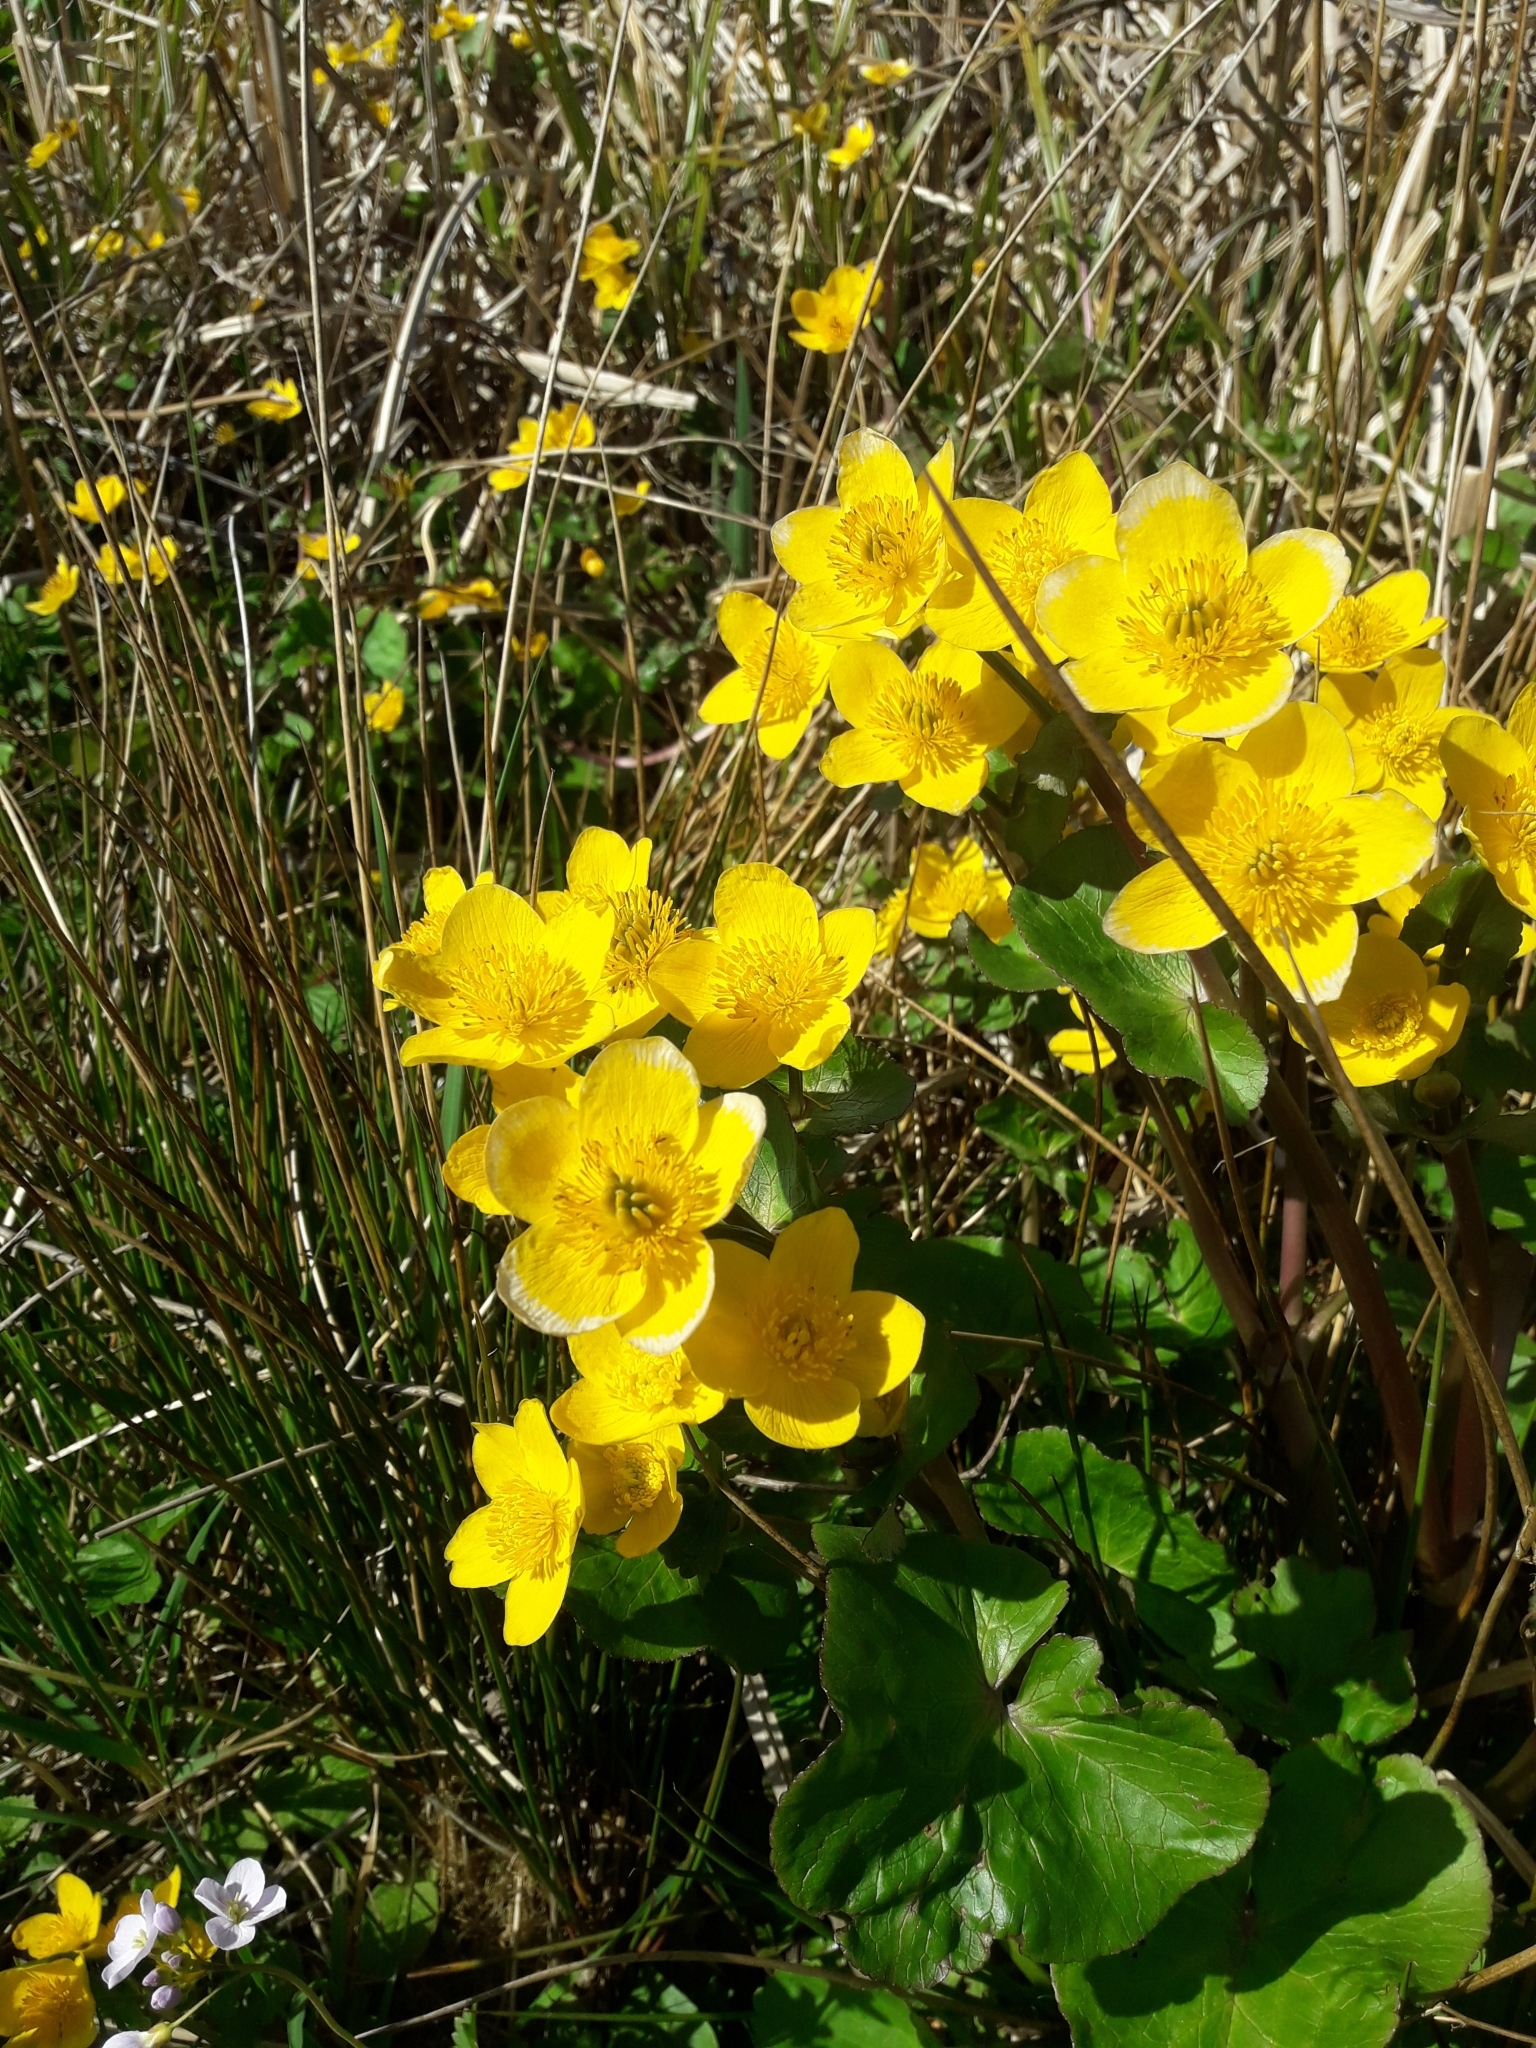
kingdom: Plantae
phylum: Tracheophyta
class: Magnoliopsida
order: Ranunculales
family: Ranunculaceae
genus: Caltha
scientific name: Caltha palustris
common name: Marsh marigold
